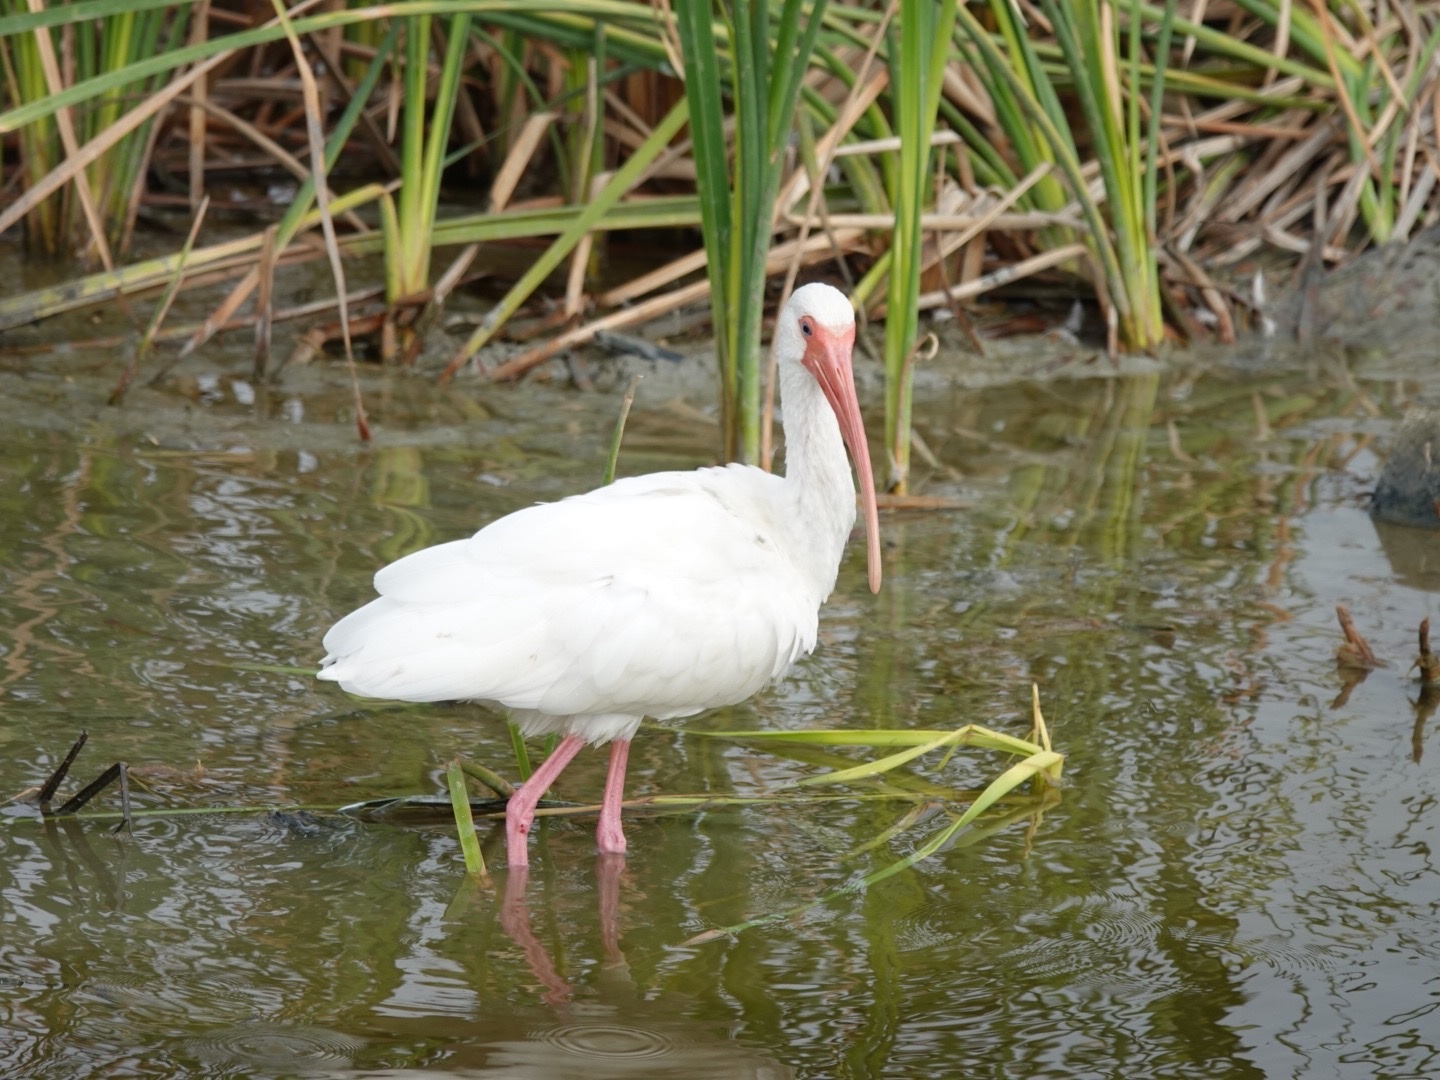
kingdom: Animalia
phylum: Chordata
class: Aves
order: Pelecaniformes
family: Threskiornithidae
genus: Eudocimus
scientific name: Eudocimus albus
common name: White ibis
